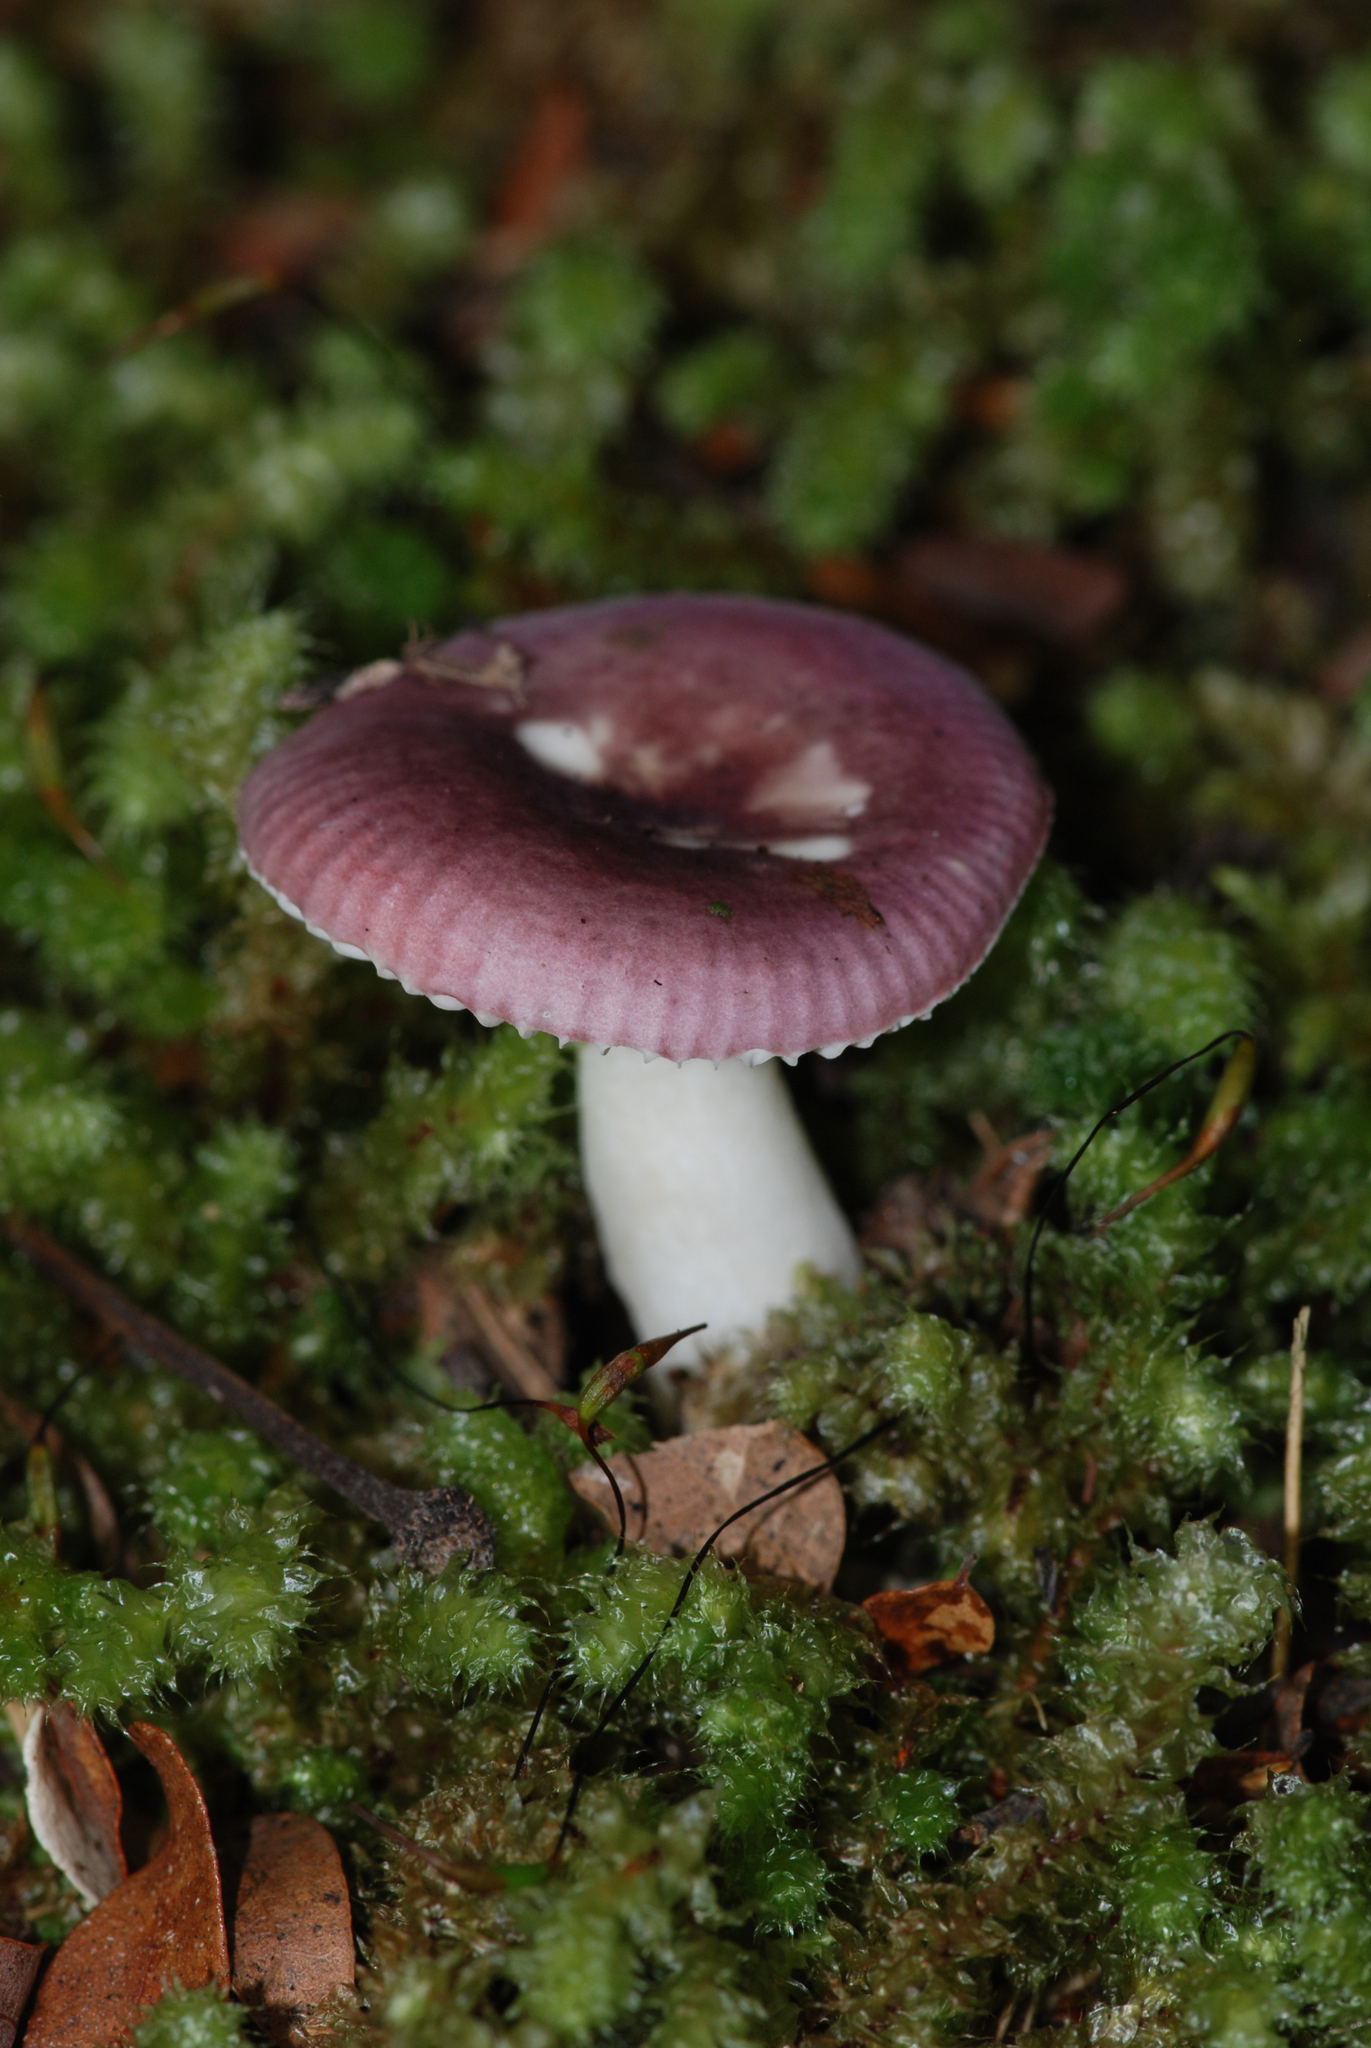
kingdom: Fungi
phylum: Basidiomycota
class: Agaricomycetes
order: Russulales
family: Russulaceae
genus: Russula
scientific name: Russula roseopileata
